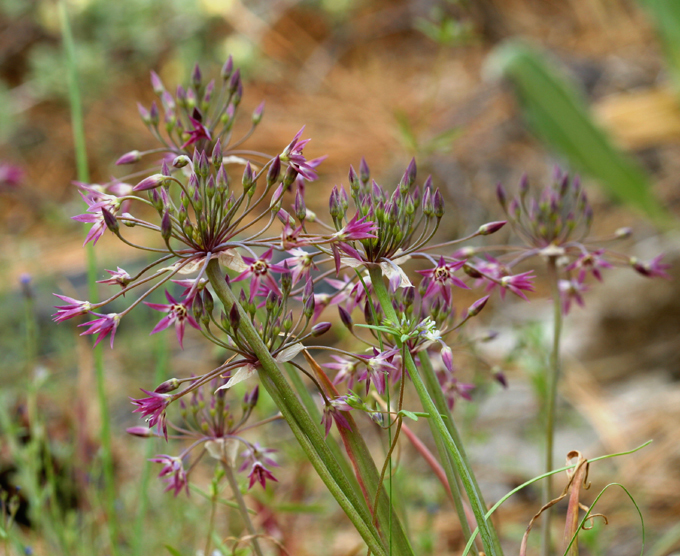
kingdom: Plantae
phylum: Tracheophyta
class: Liliopsida
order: Asparagales
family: Amaryllidaceae
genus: Allium
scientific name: Allium campanulatum
